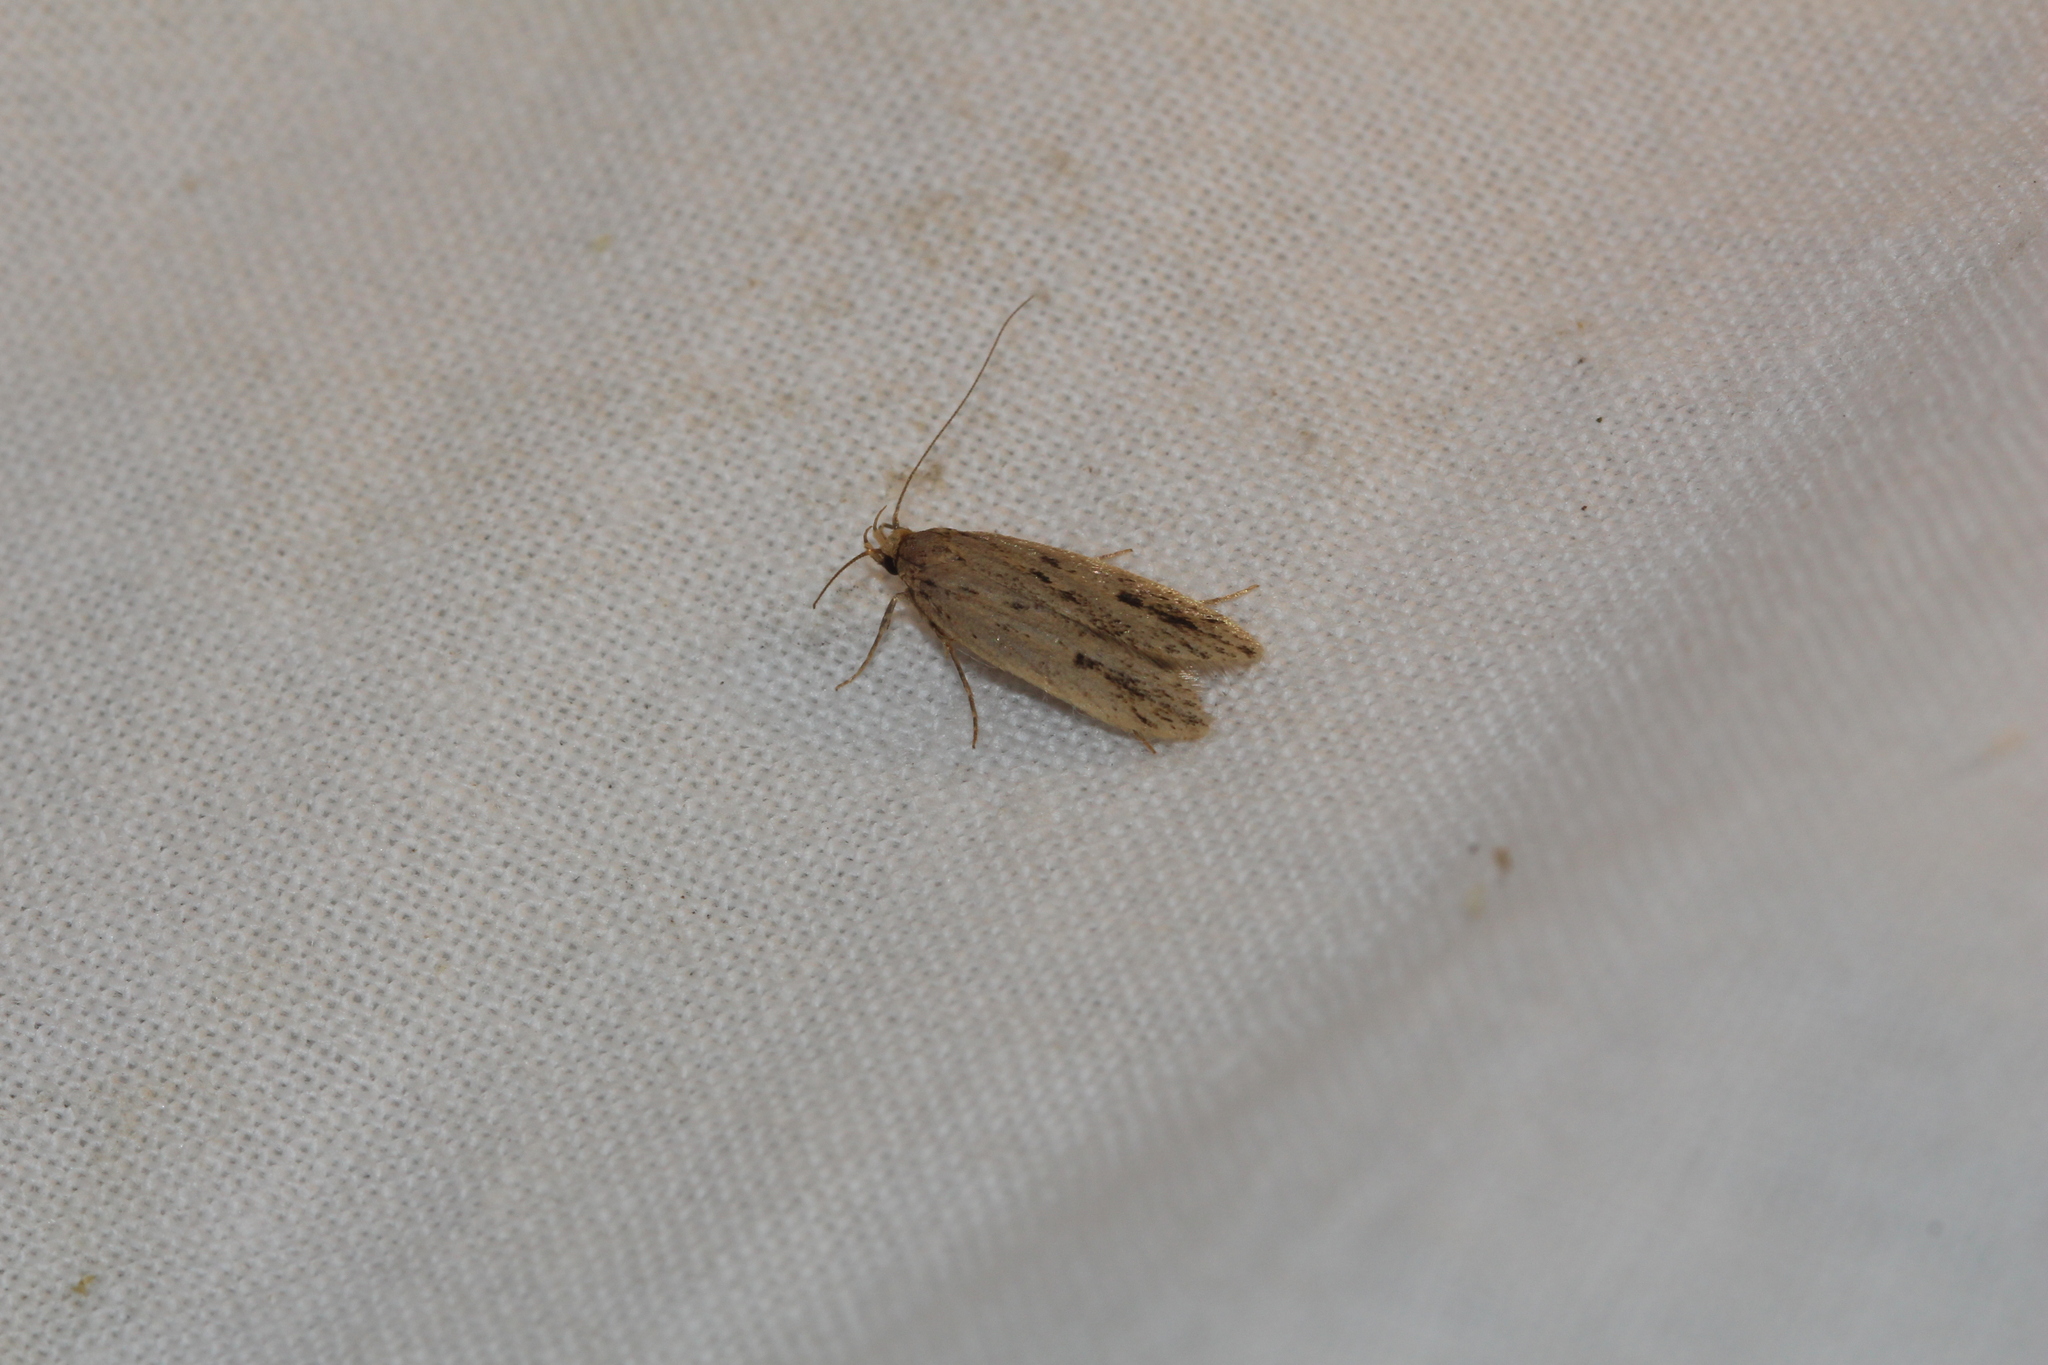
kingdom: Animalia
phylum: Arthropoda
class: Insecta
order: Lepidoptera
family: Oecophoridae
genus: Hofmannophila
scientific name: Hofmannophila pseudospretella
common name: Brown house moth
